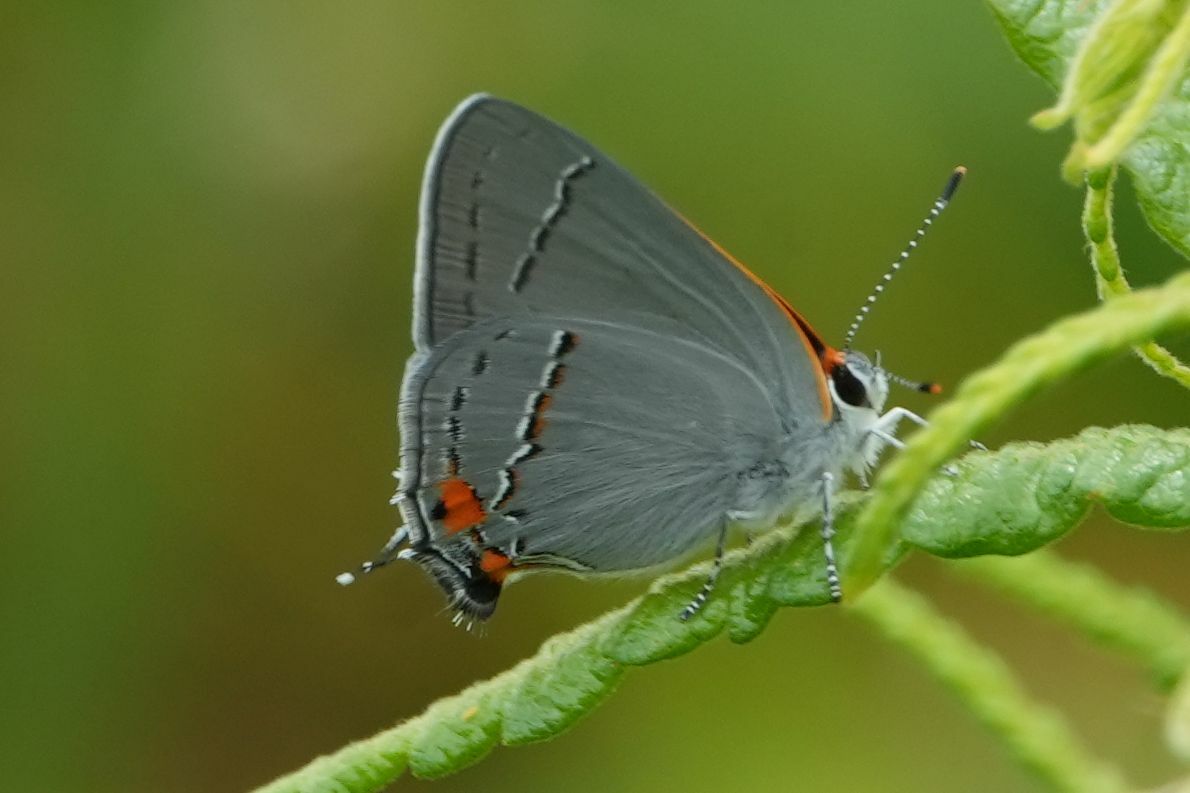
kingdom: Animalia
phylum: Arthropoda
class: Insecta
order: Lepidoptera
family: Lycaenidae
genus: Strymon
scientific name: Strymon melinus
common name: Gray hairstreak
